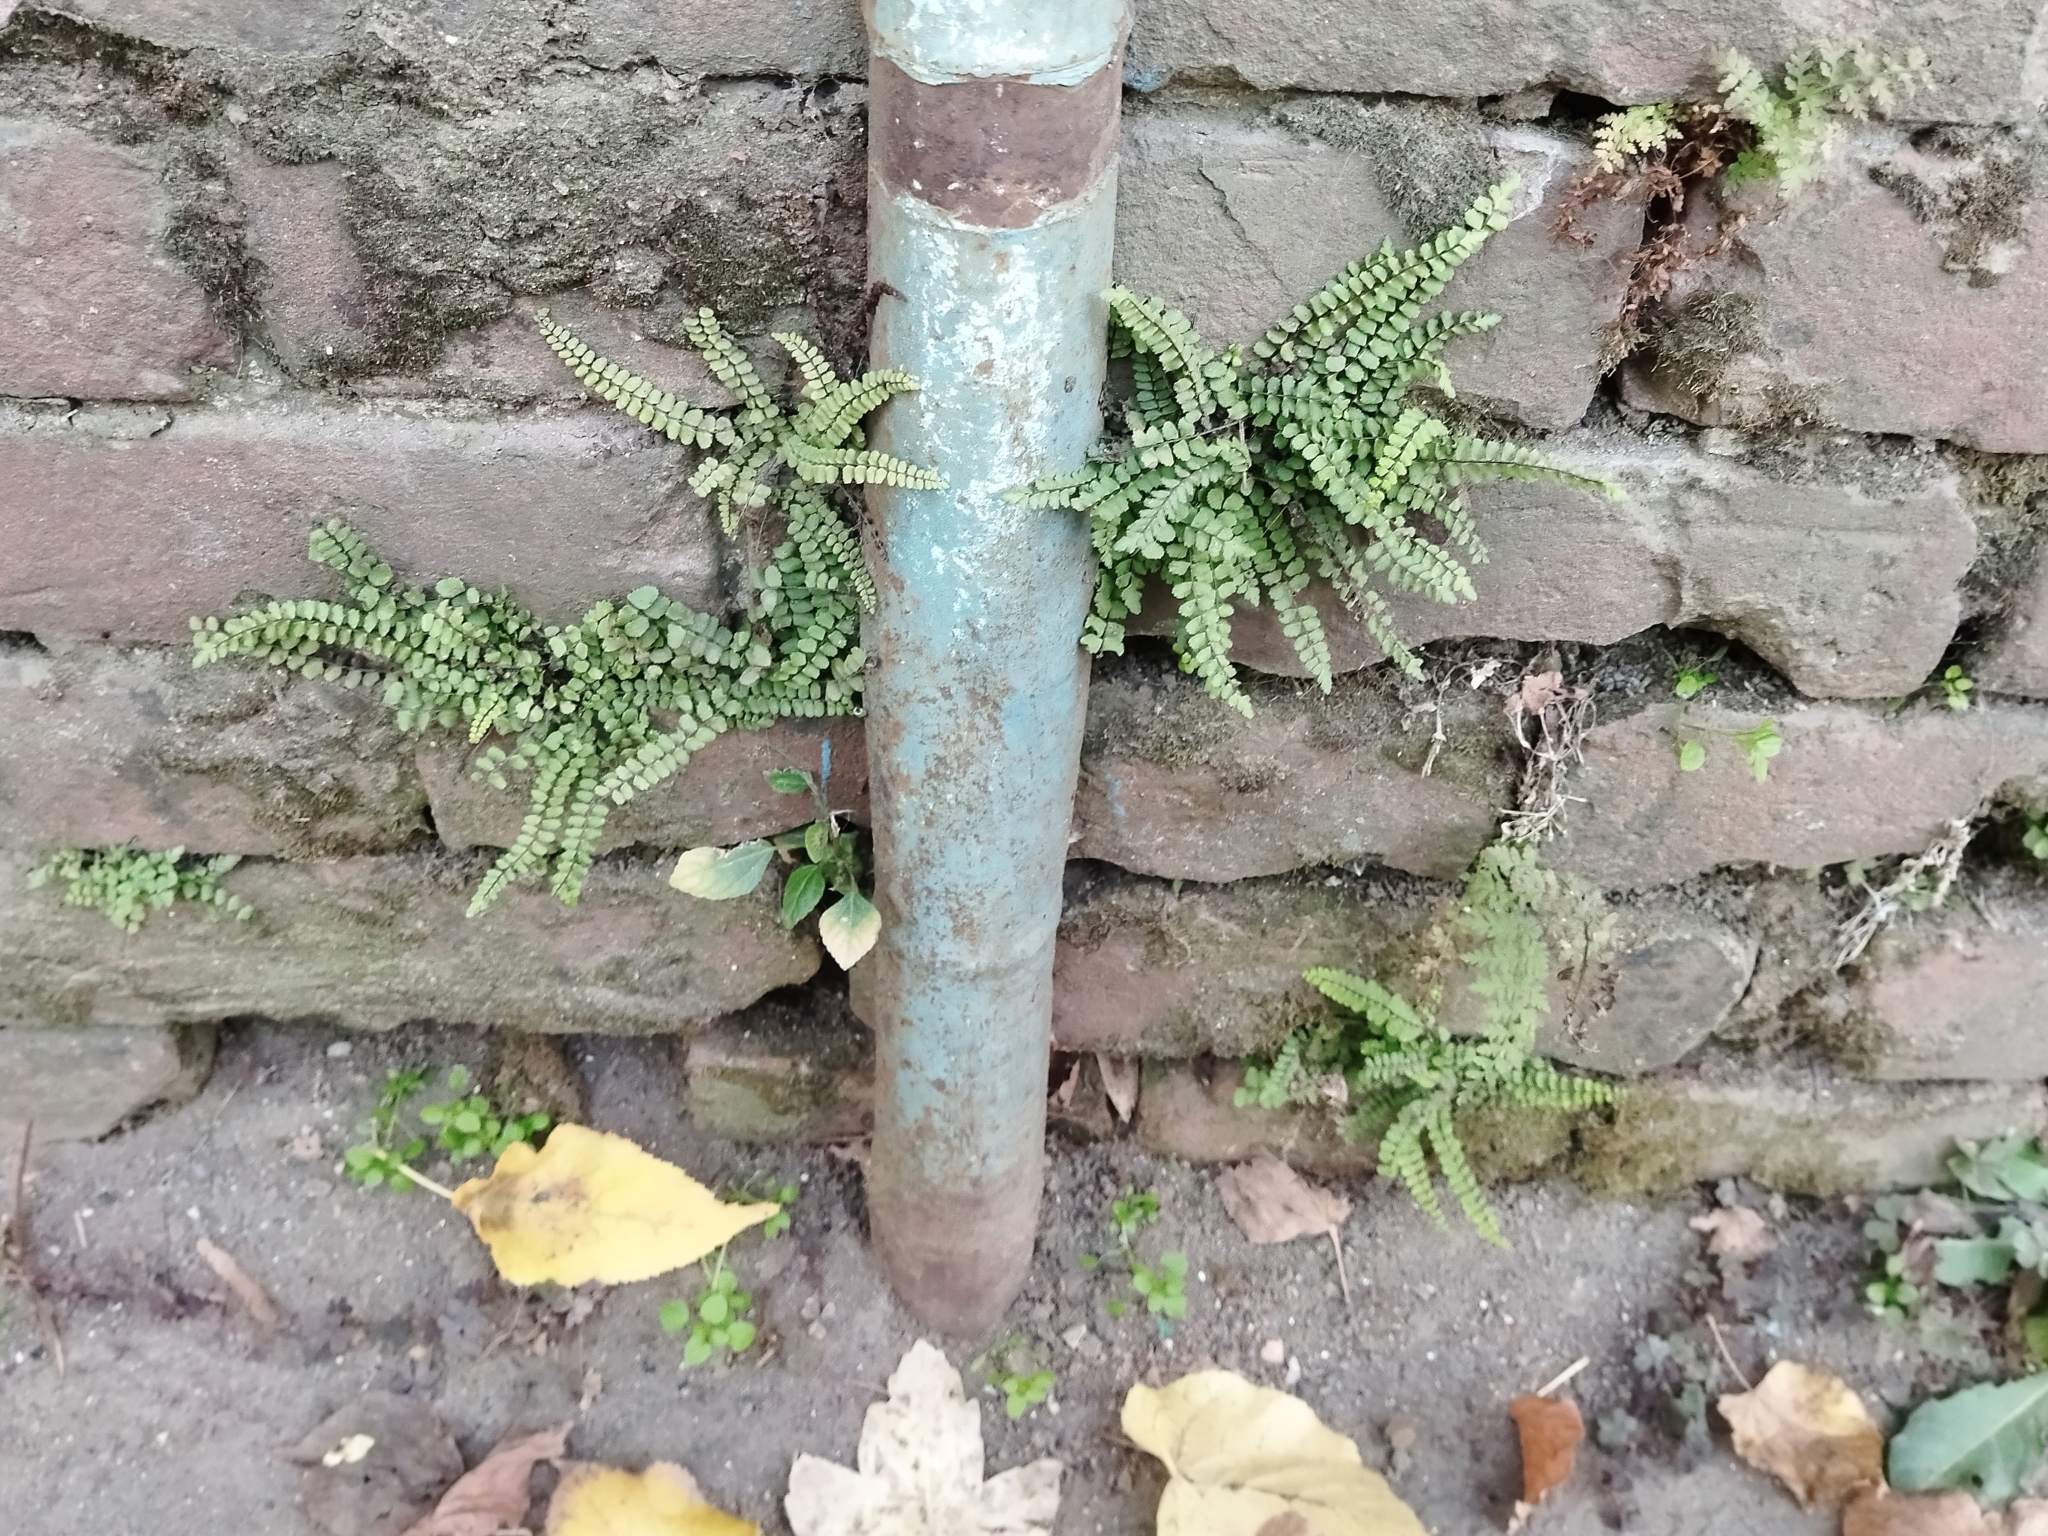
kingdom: Plantae
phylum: Tracheophyta
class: Polypodiopsida
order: Polypodiales
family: Aspleniaceae
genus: Asplenium
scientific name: Asplenium trichomanes
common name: Maidenhair spleenwort
